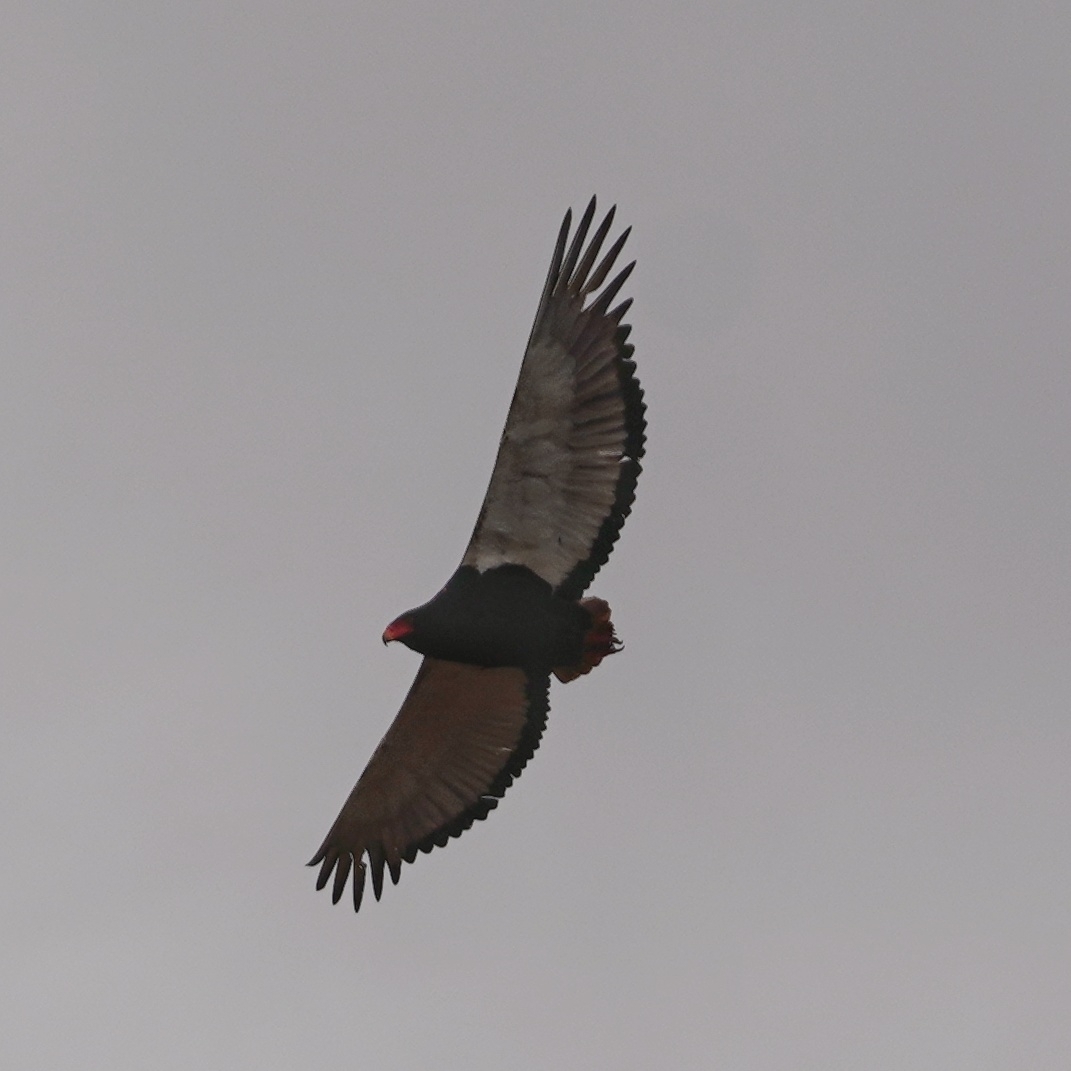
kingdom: Animalia
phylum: Chordata
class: Aves
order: Accipitriformes
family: Accipitridae
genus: Terathopius
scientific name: Terathopius ecaudatus
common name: Bateleur
